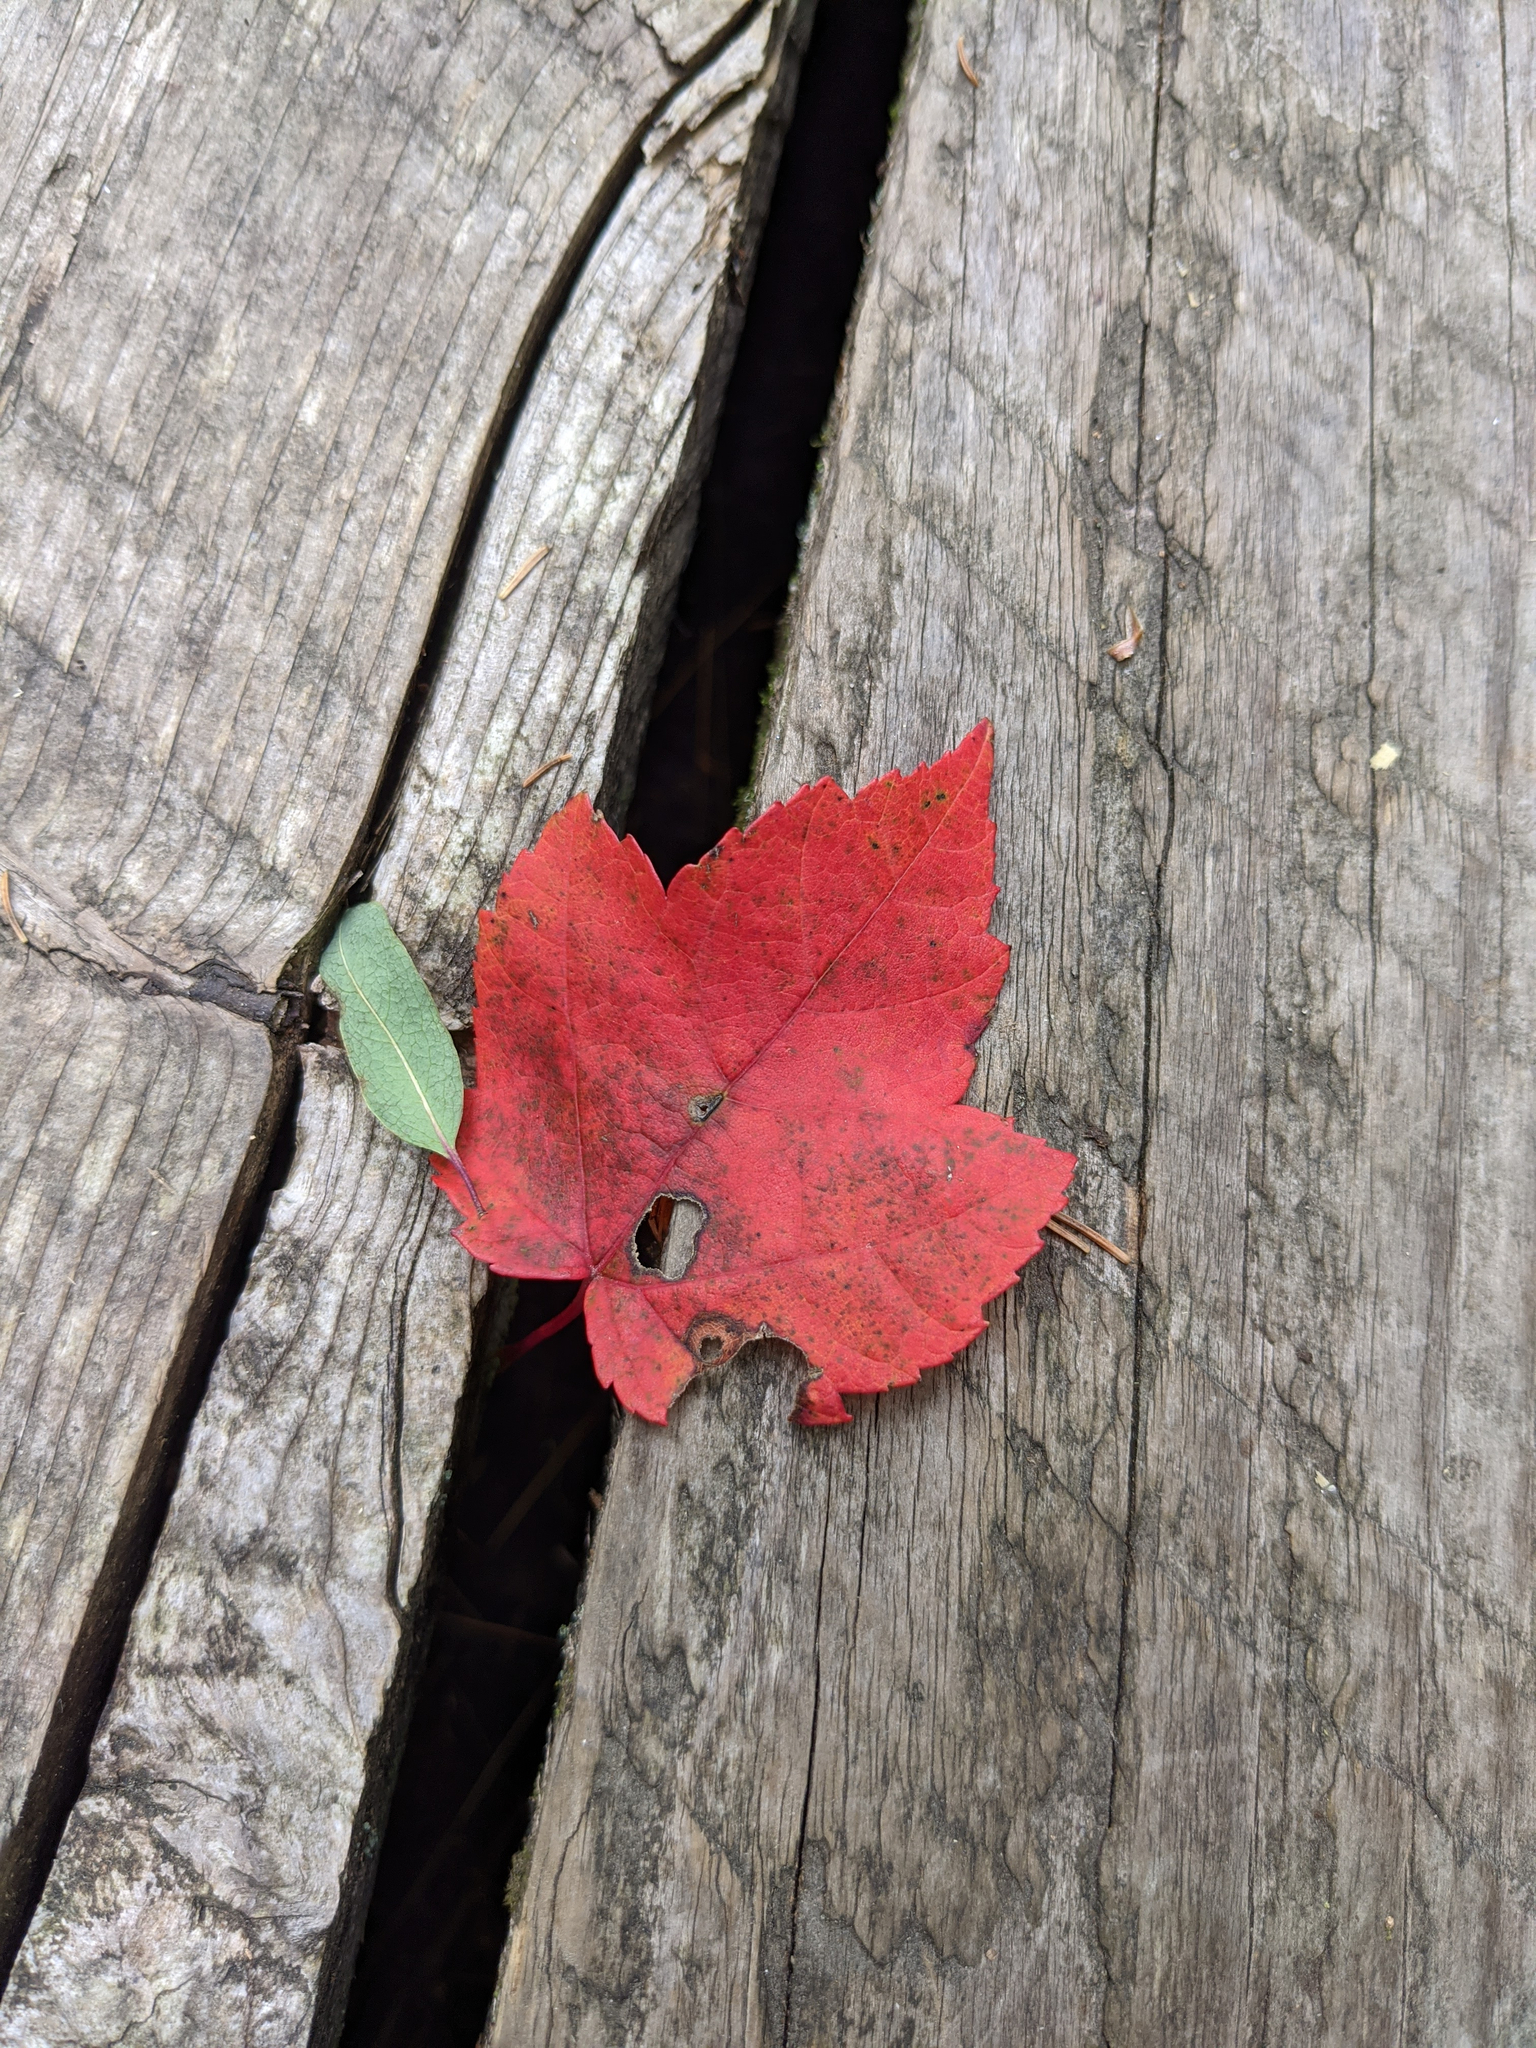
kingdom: Plantae
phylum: Tracheophyta
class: Magnoliopsida
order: Sapindales
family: Sapindaceae
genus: Acer
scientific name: Acer rubrum
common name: Red maple
